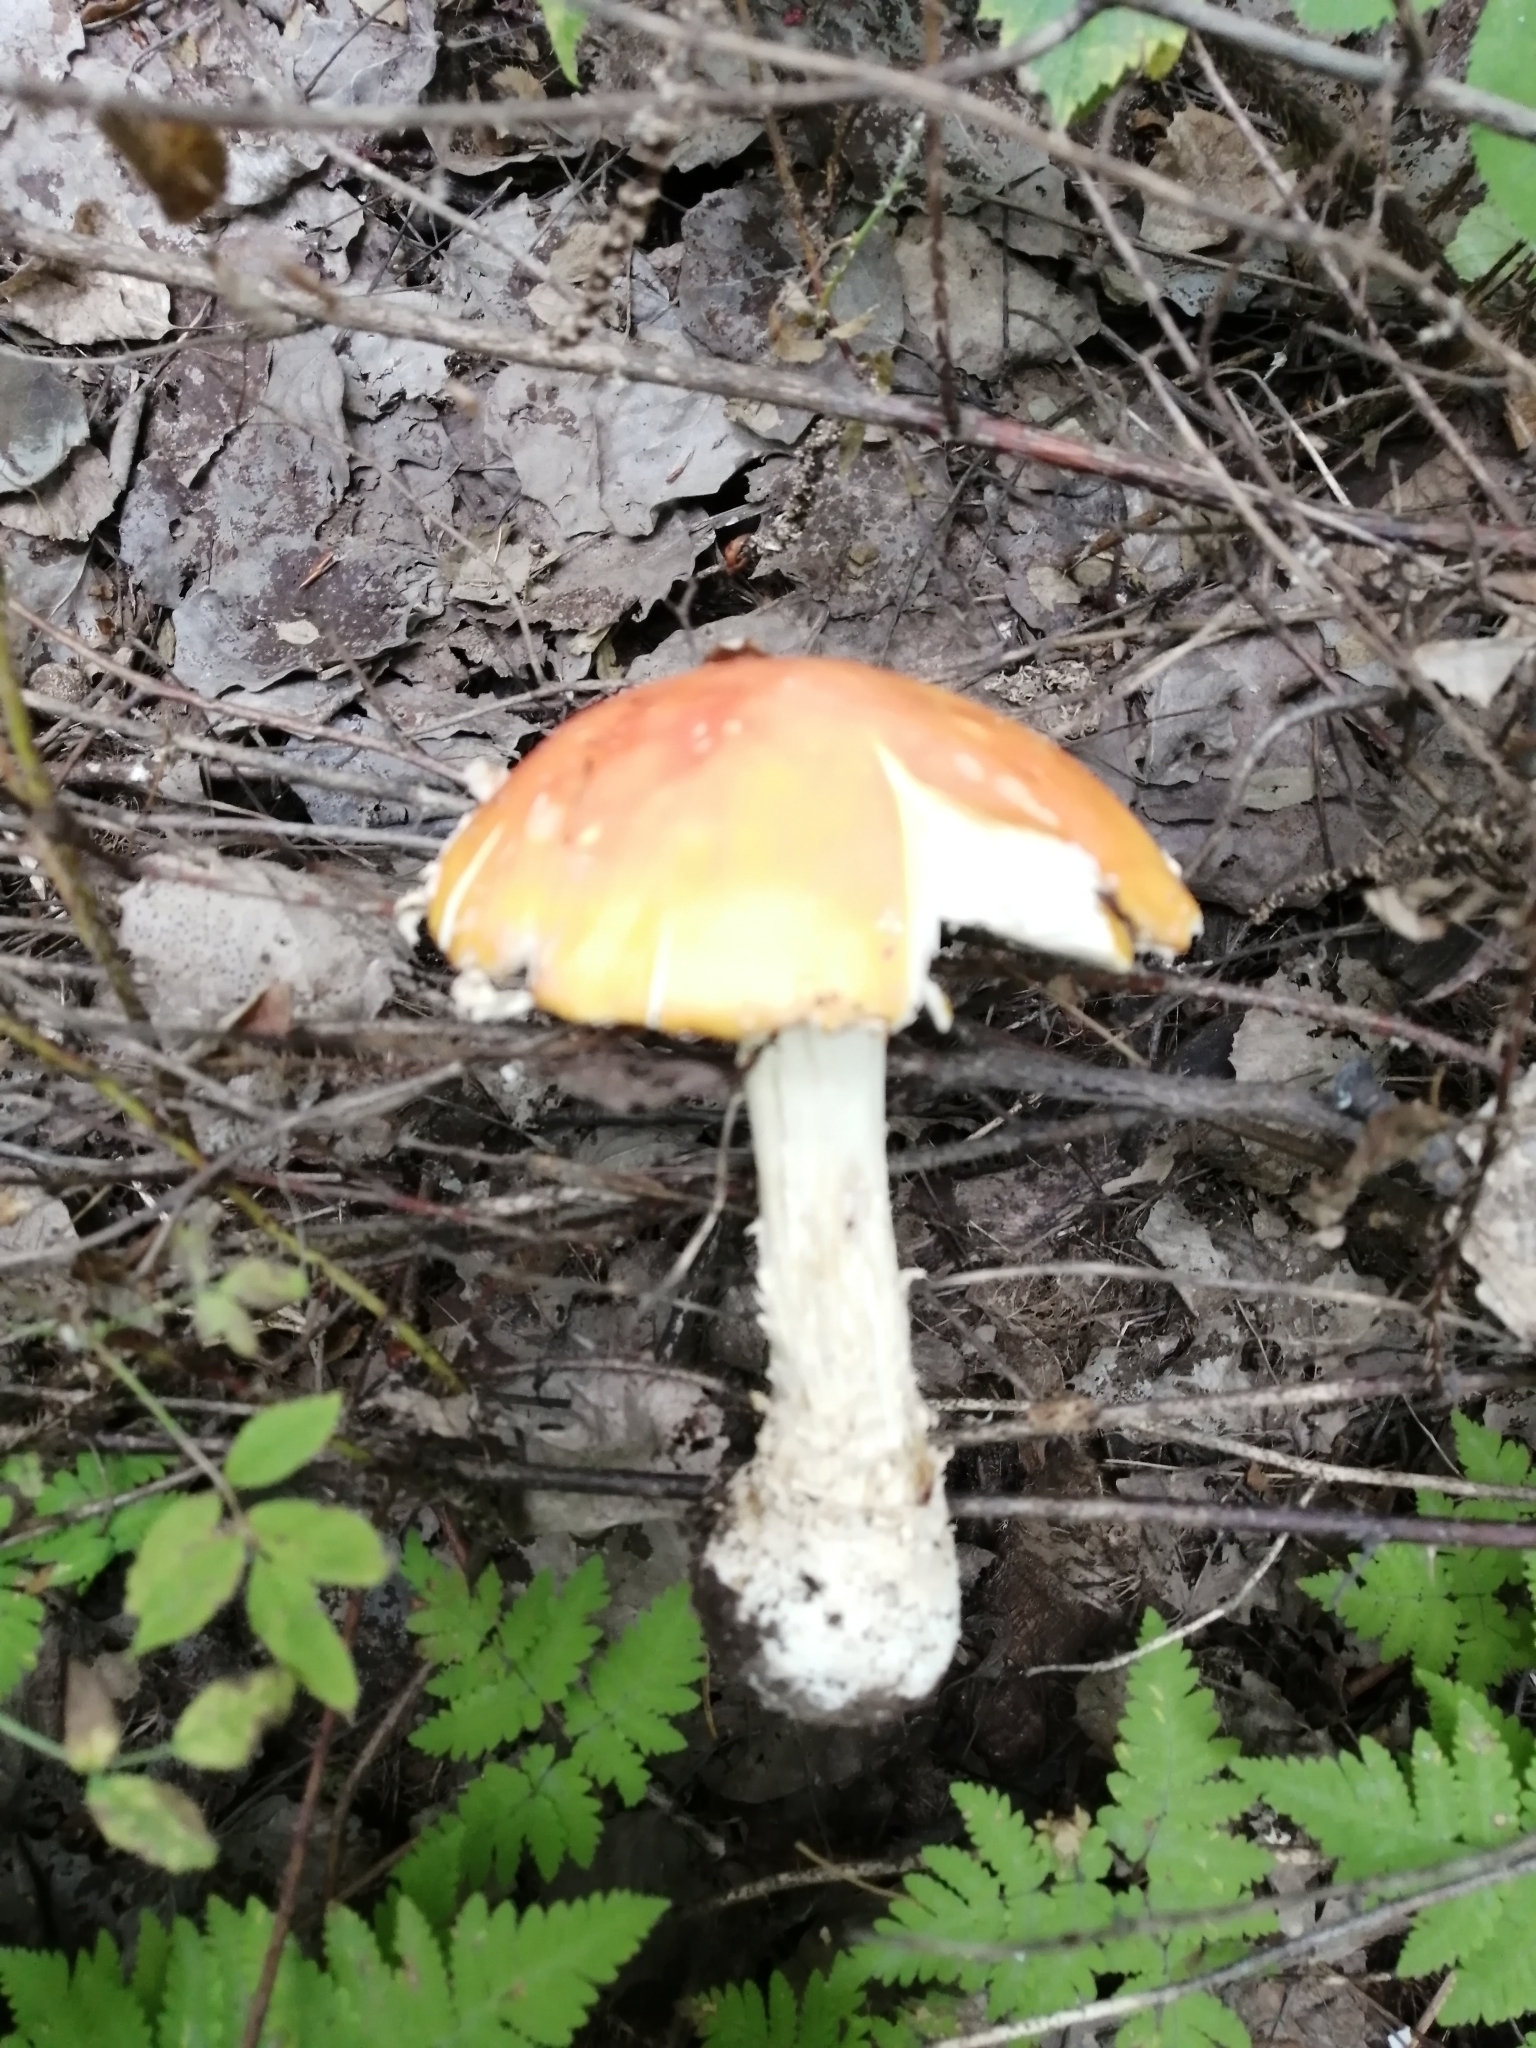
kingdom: Fungi
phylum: Basidiomycota
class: Agaricomycetes
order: Agaricales
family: Amanitaceae
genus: Amanita
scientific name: Amanita muscaria
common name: Fly agaric
